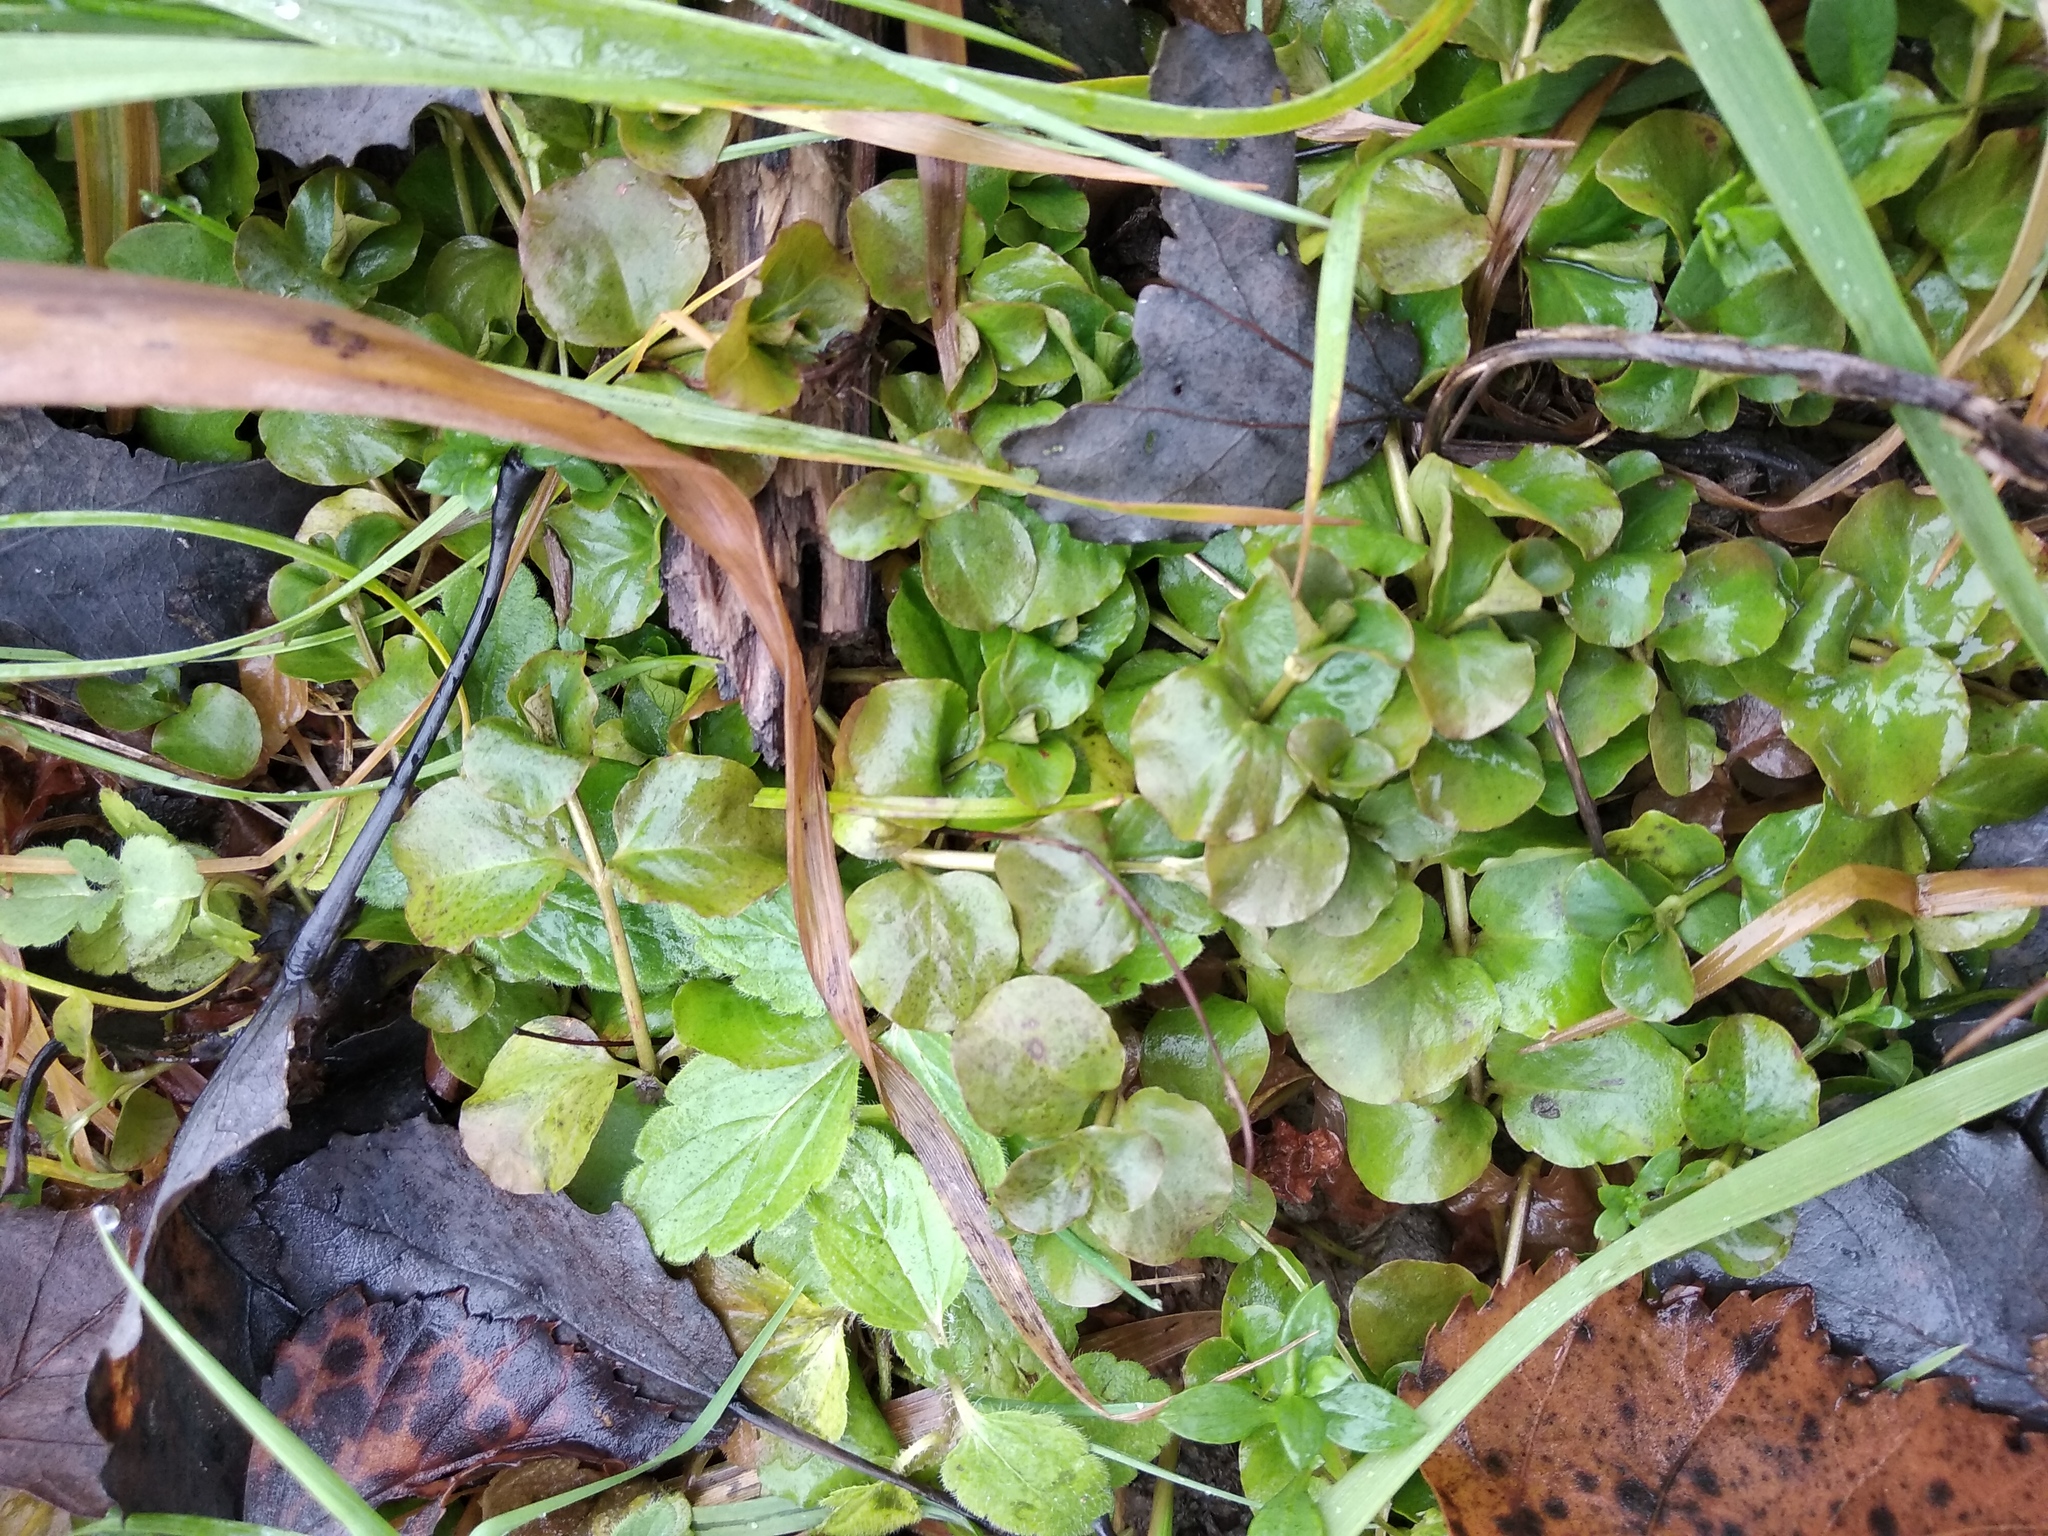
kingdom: Plantae
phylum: Tracheophyta
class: Magnoliopsida
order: Ericales
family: Primulaceae
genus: Lysimachia
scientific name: Lysimachia nummularia
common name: Moneywort
